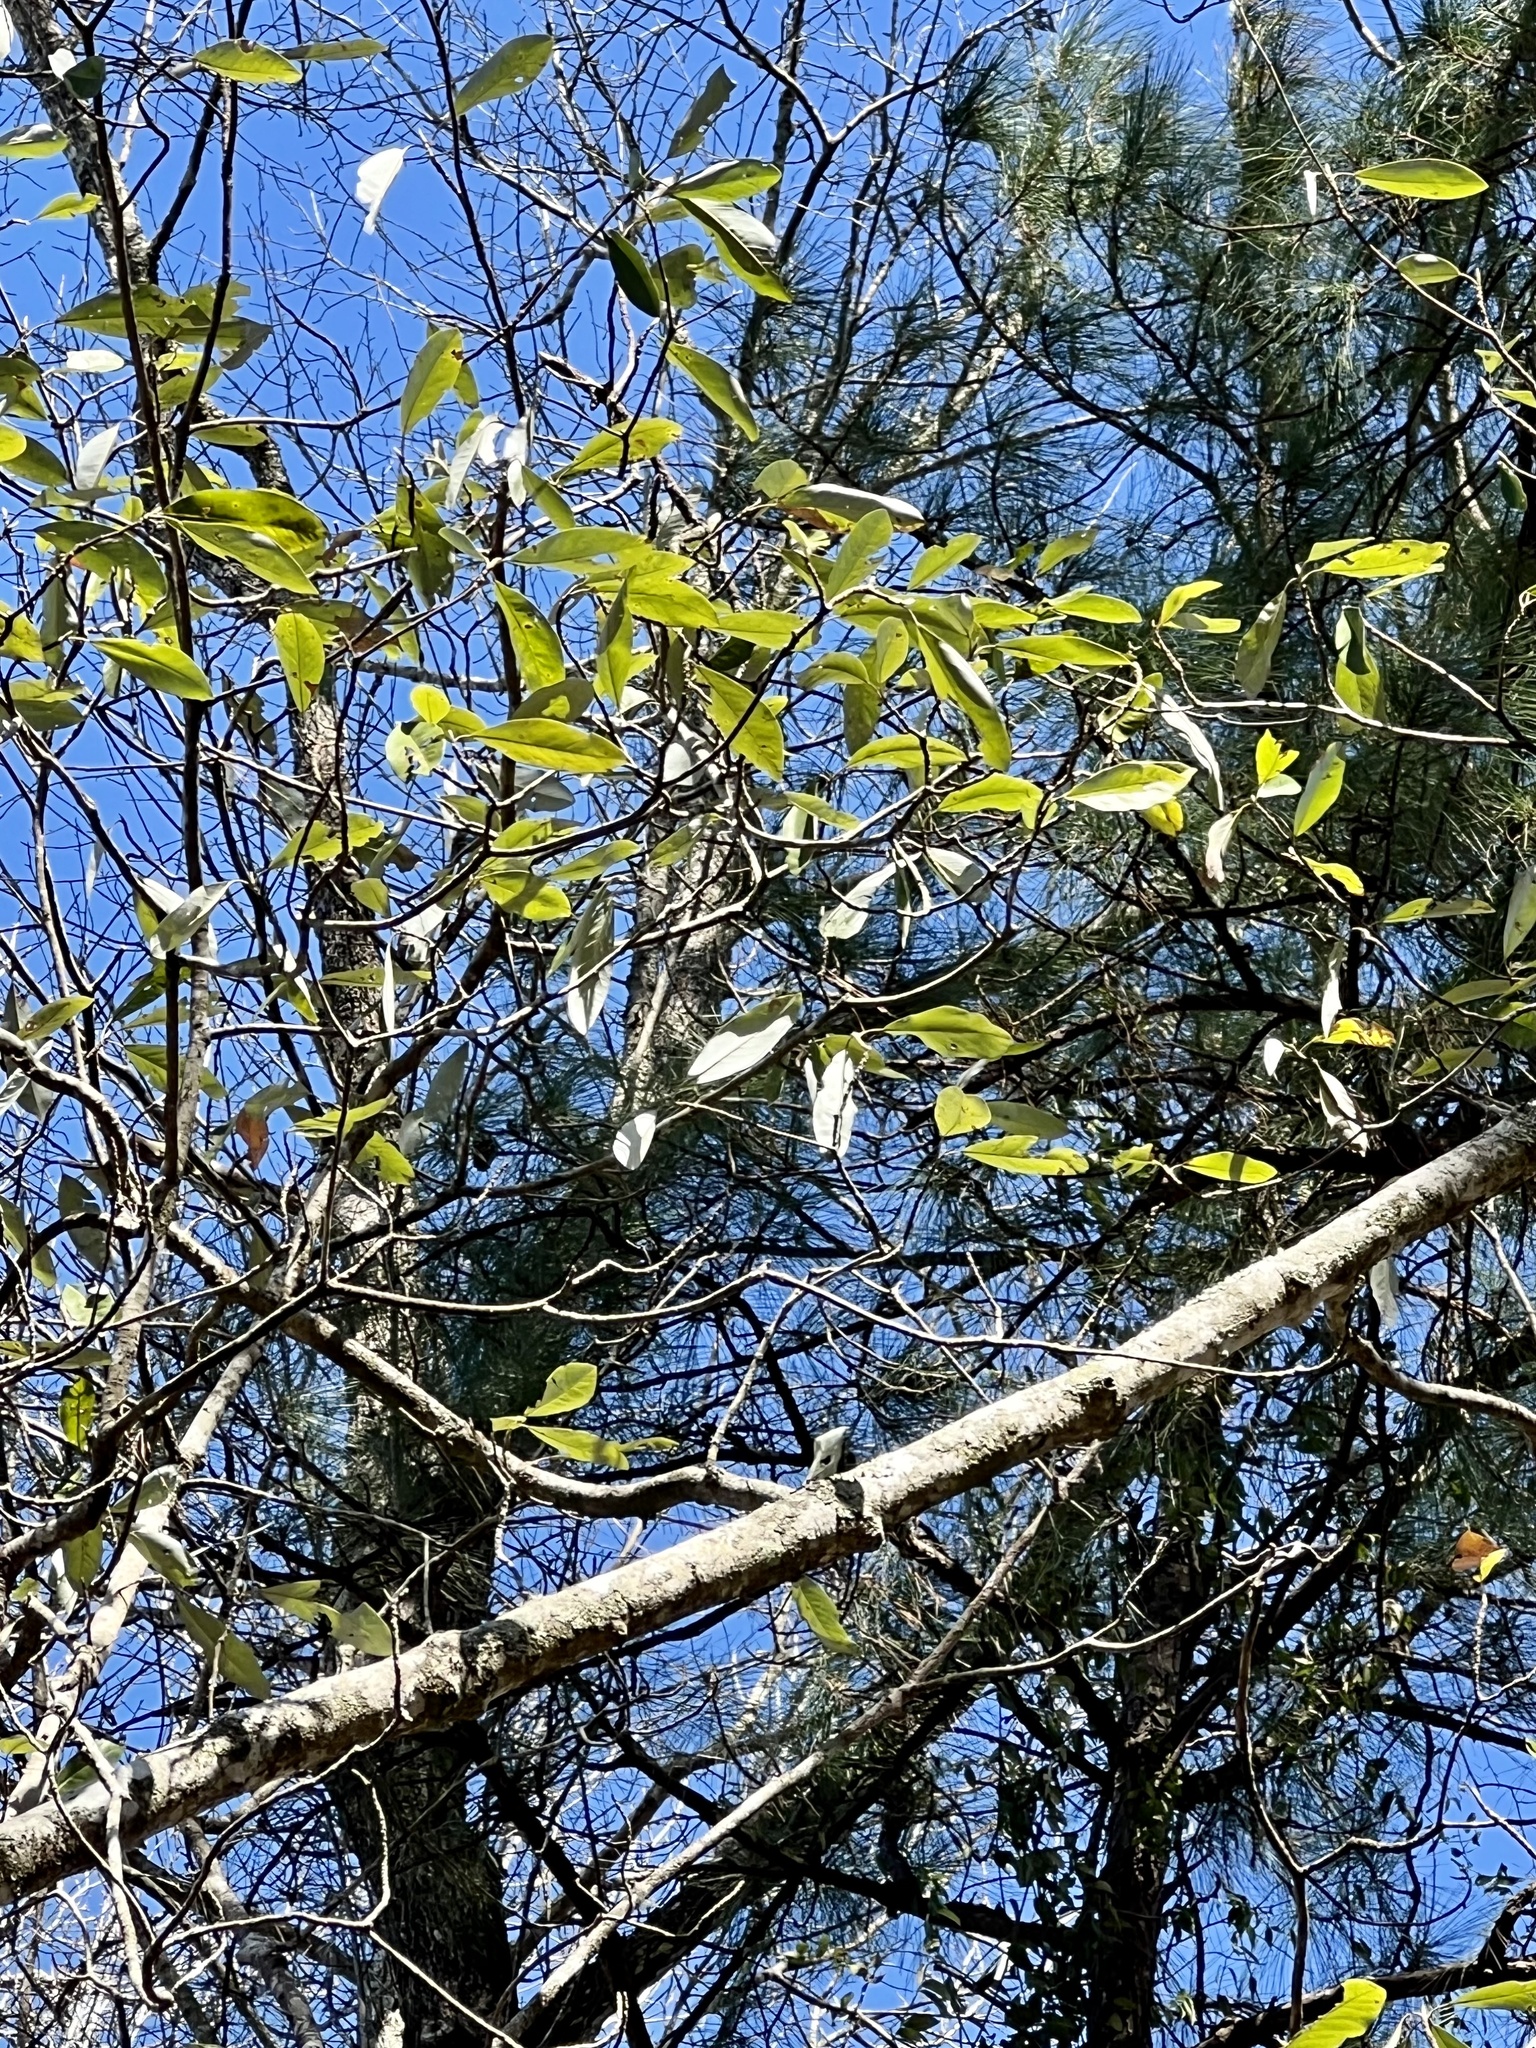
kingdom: Plantae
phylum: Tracheophyta
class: Magnoliopsida
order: Magnoliales
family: Magnoliaceae
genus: Magnolia
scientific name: Magnolia virginiana
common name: Swamp bay
